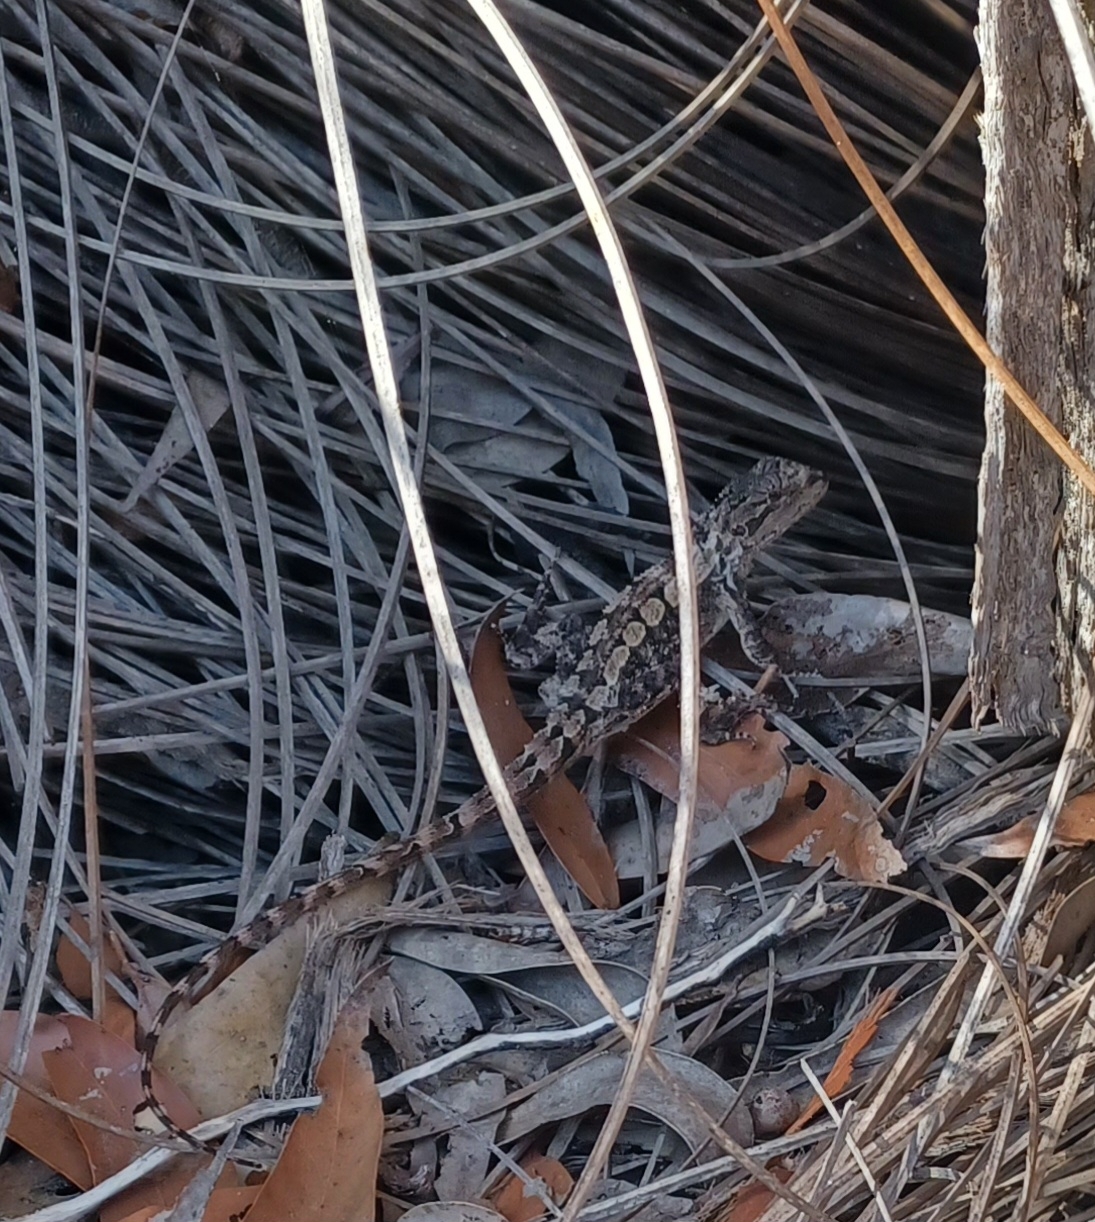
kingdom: Animalia
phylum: Chordata
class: Squamata
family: Agamidae
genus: Amphibolurus
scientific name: Amphibolurus muricatus
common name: Jacky lizard
